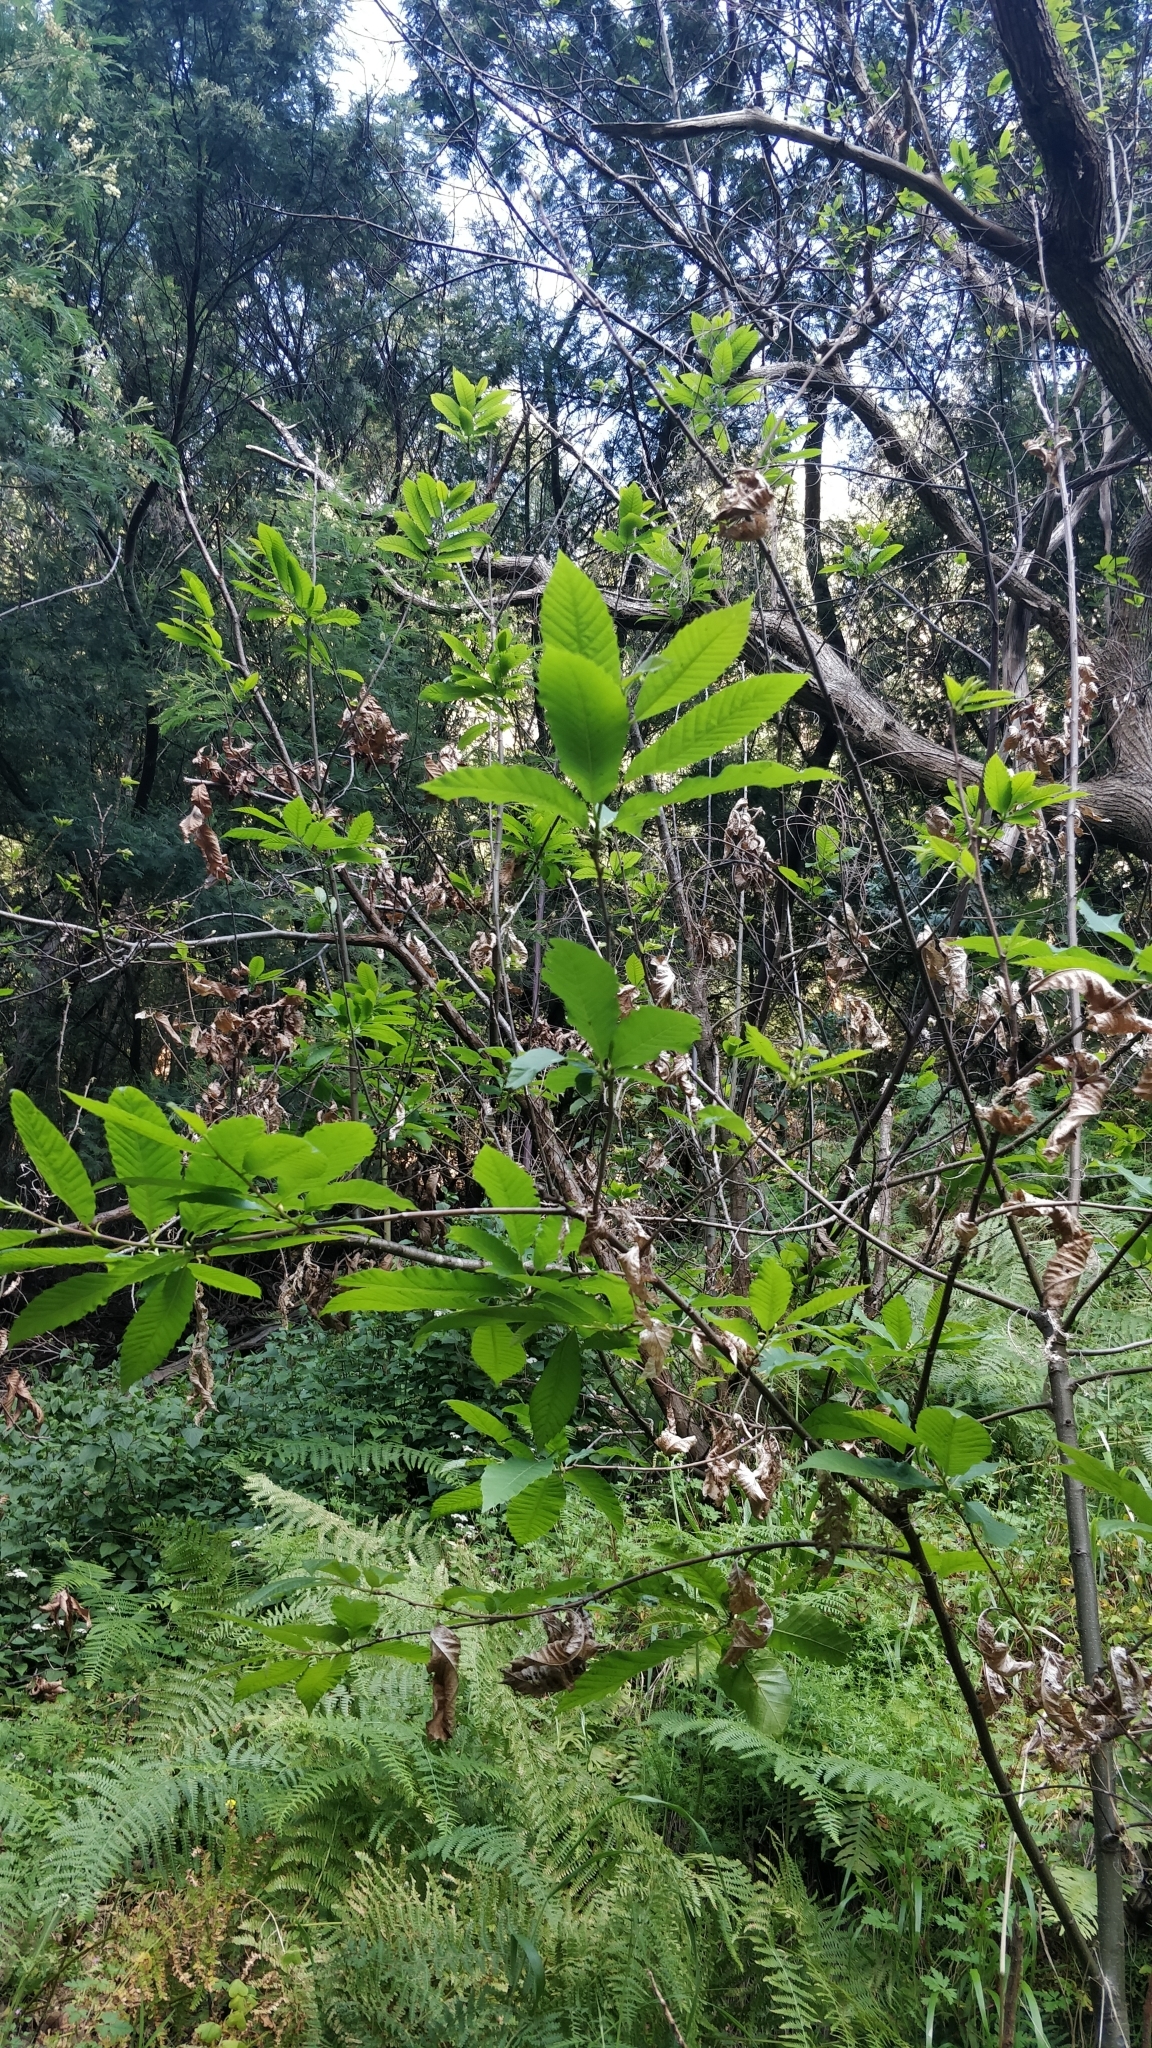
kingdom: Plantae
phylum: Tracheophyta
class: Magnoliopsida
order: Fagales
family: Fagaceae
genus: Castanea
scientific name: Castanea sativa
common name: Sweet chestnut
